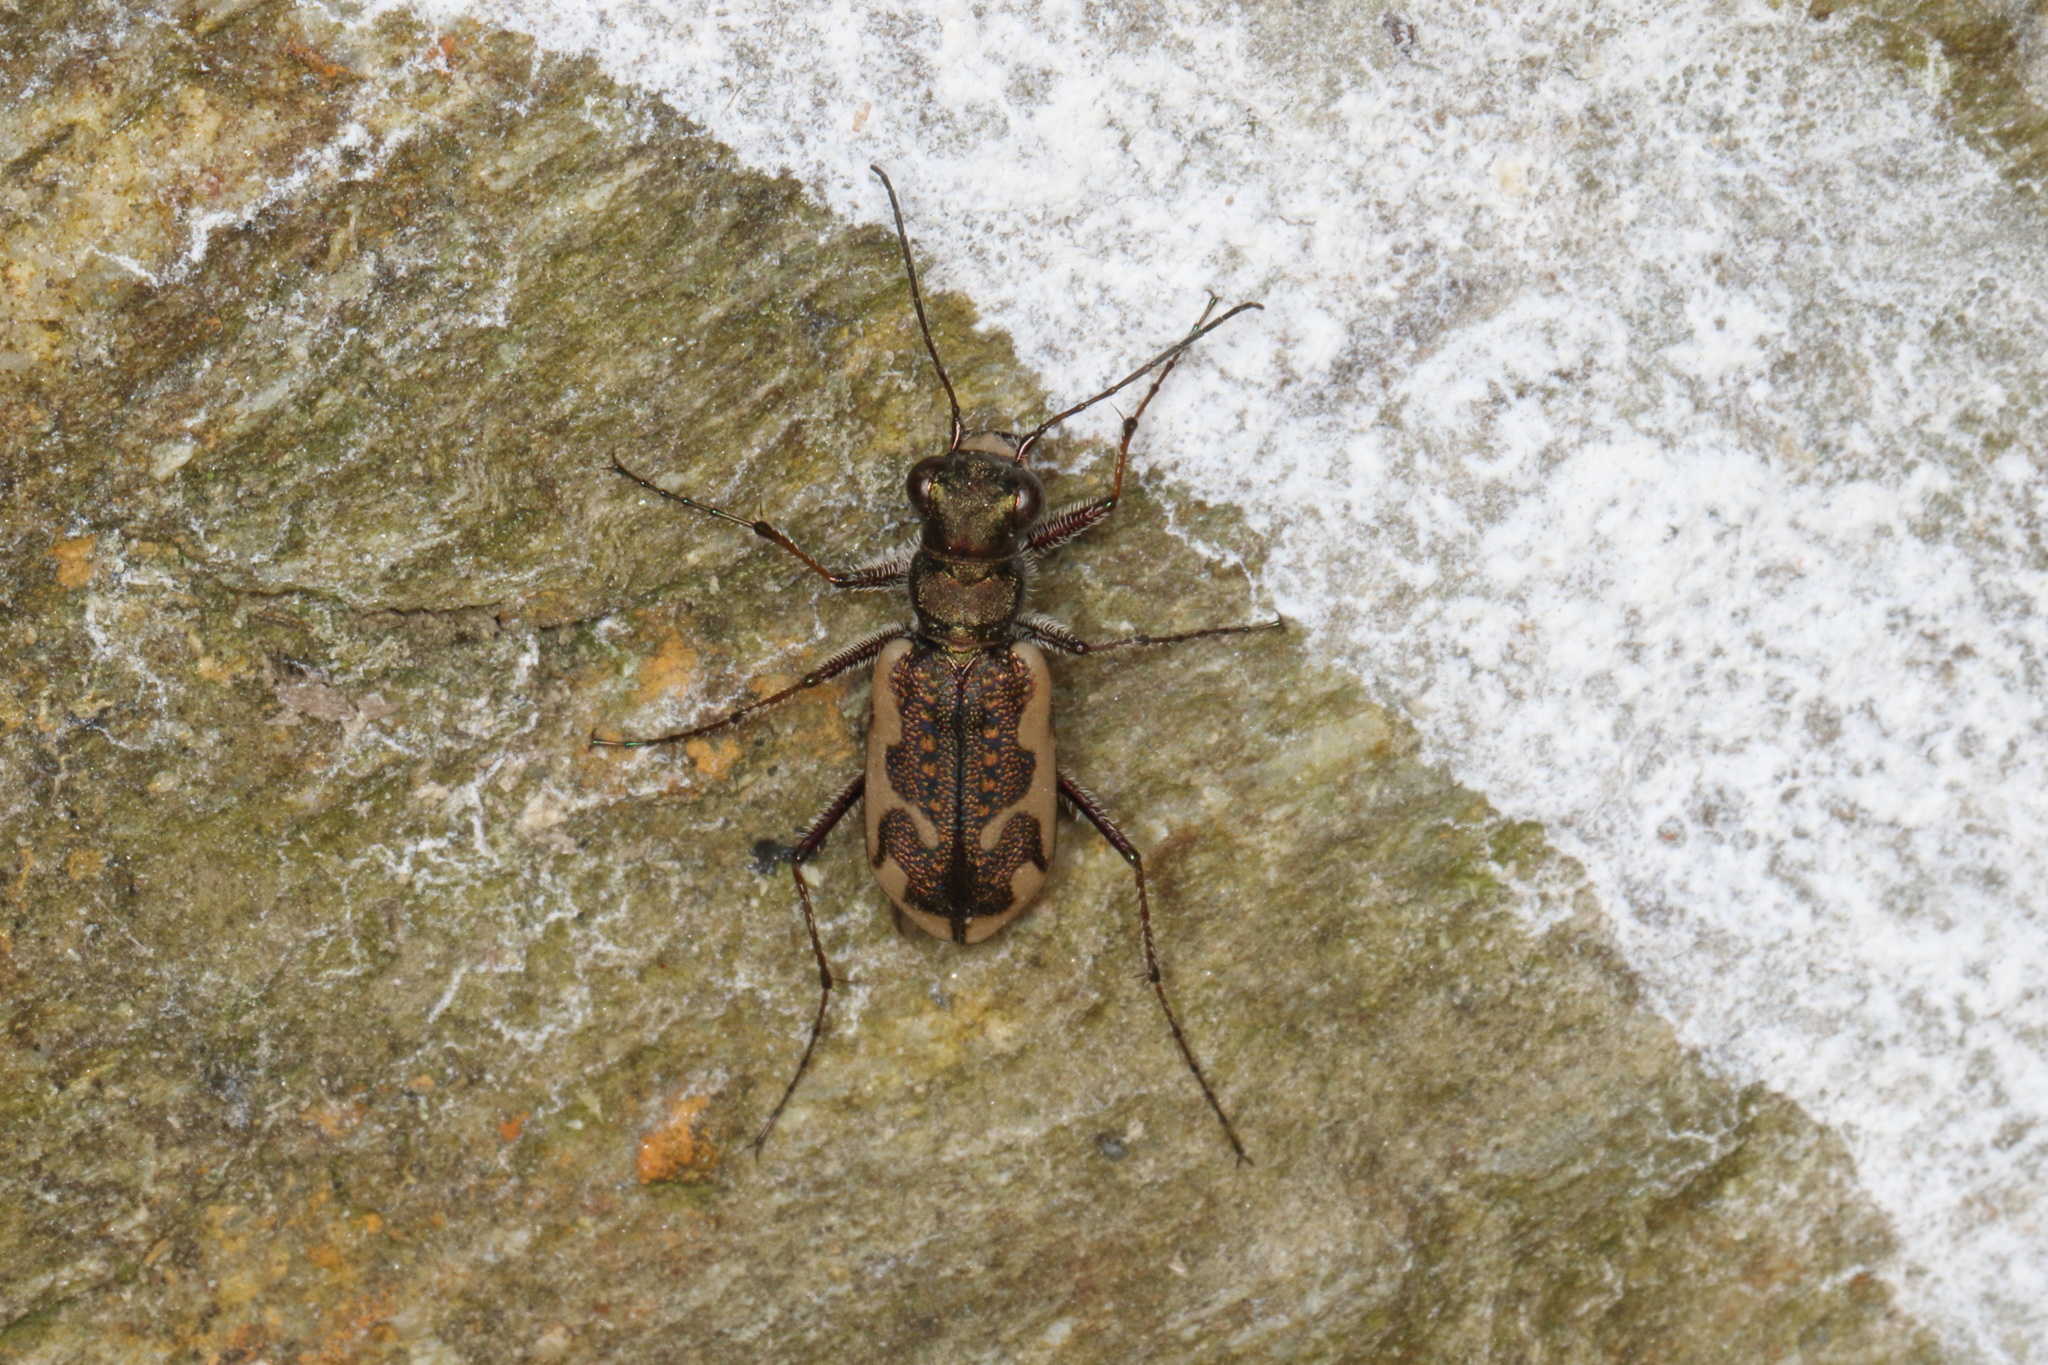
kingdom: Animalia
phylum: Arthropoda
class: Insecta
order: Coleoptera
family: Carabidae
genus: Neocicindela
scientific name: Neocicindela tuberculata
